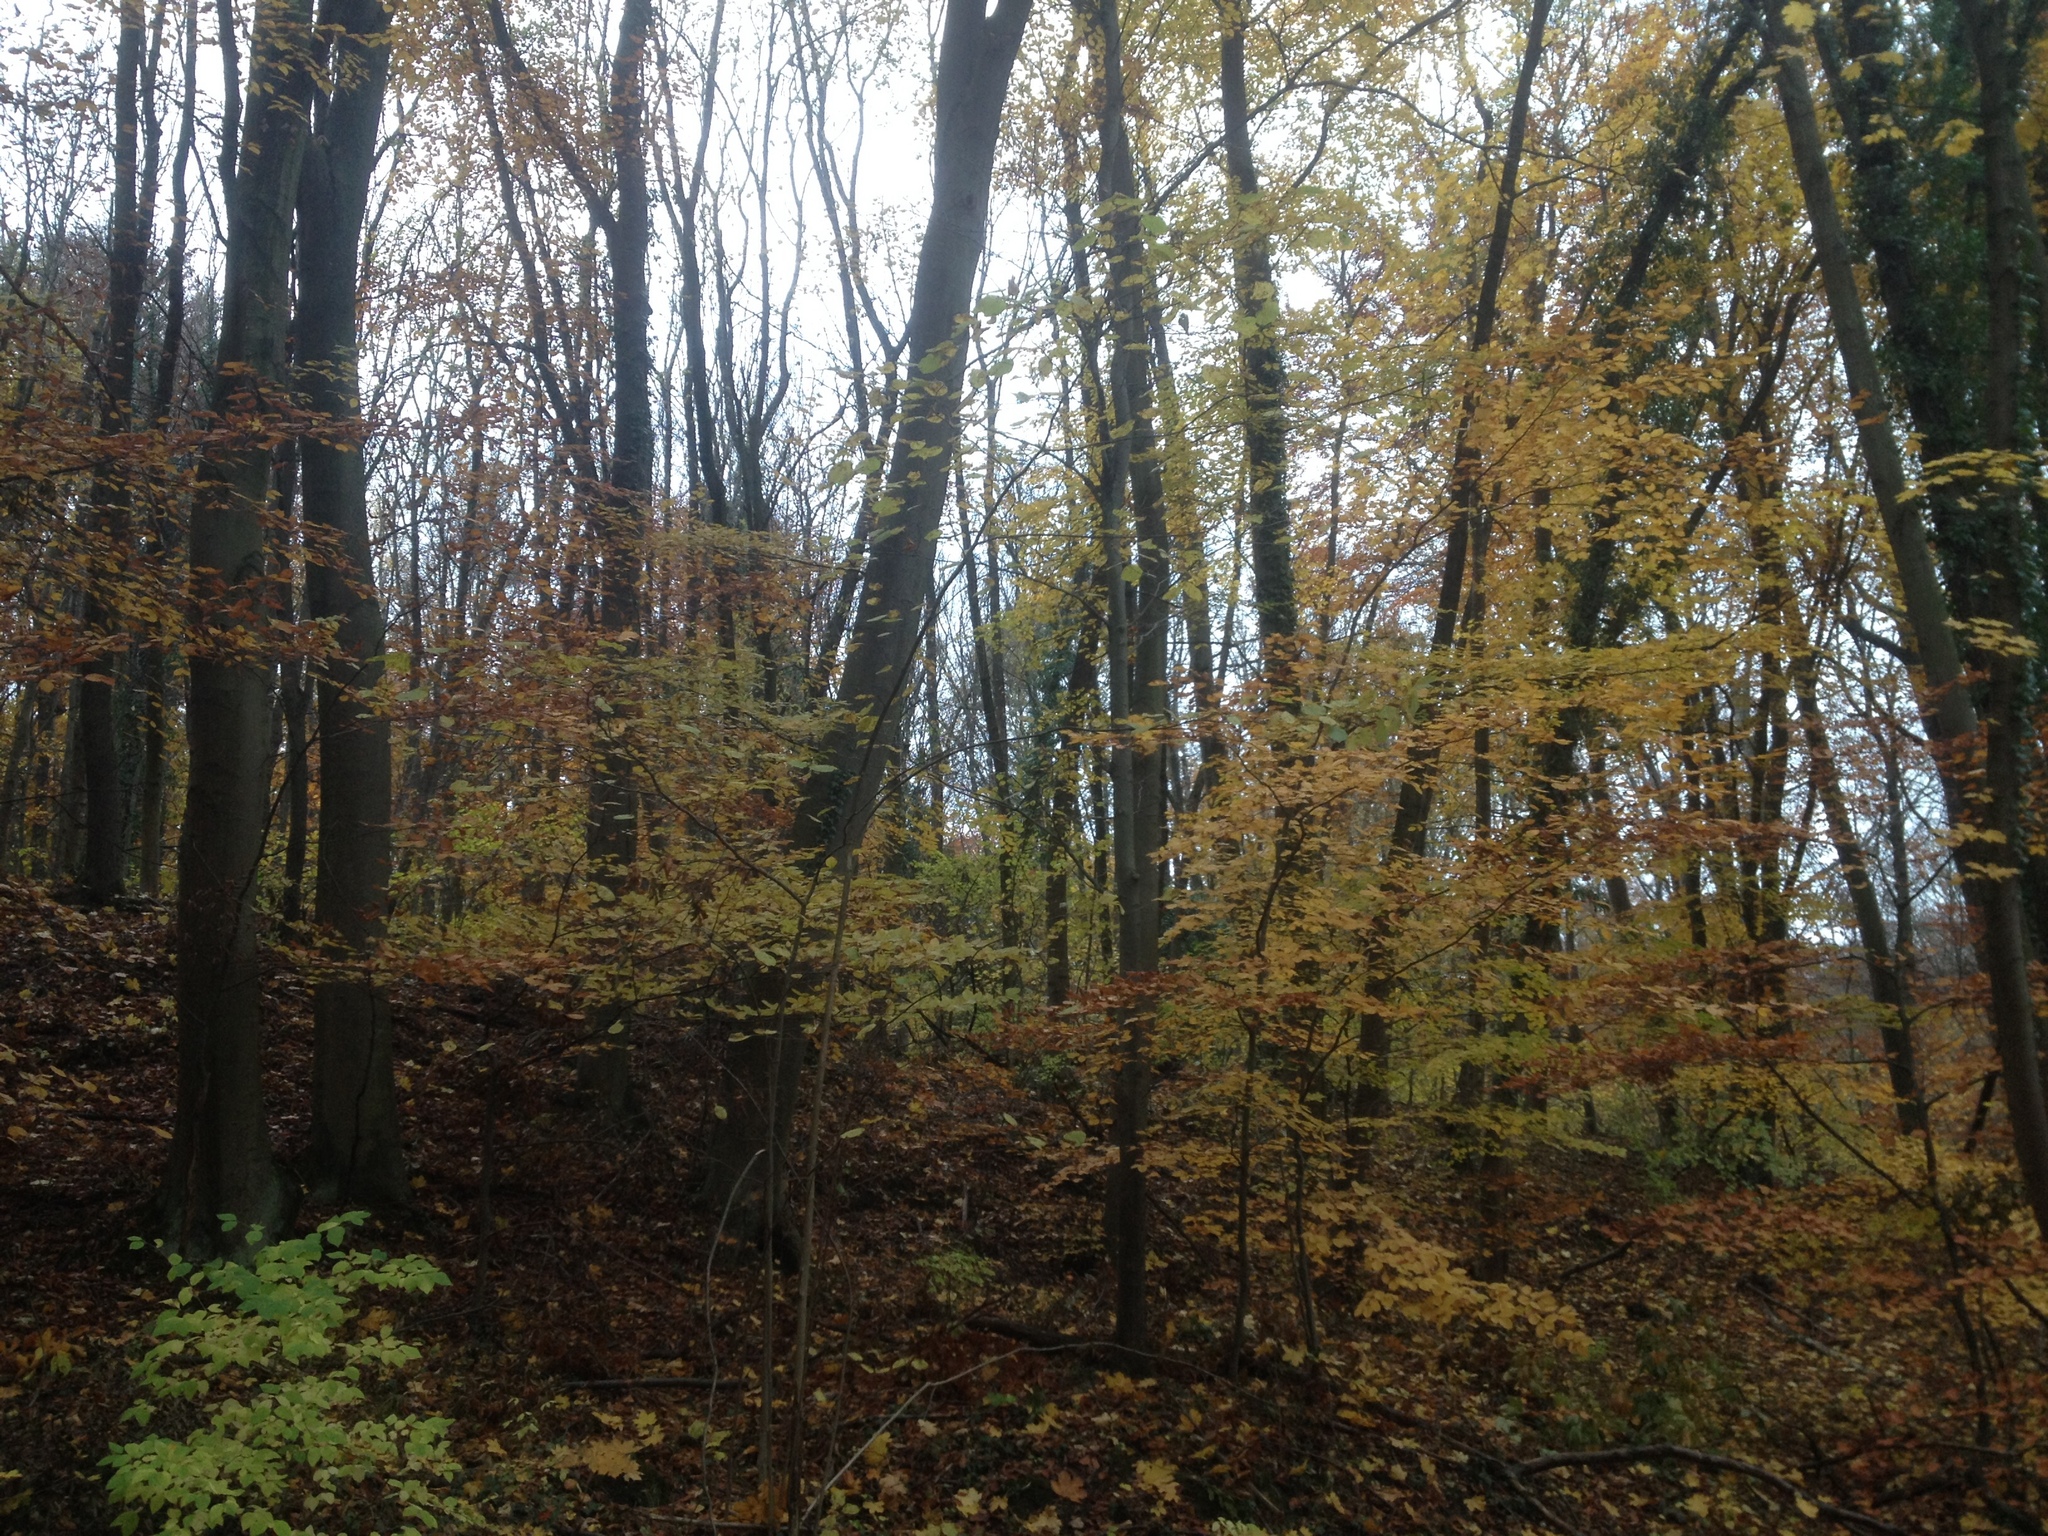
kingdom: Plantae
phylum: Tracheophyta
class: Magnoliopsida
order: Fagales
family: Fagaceae
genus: Fagus
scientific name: Fagus sylvatica
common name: Beech
